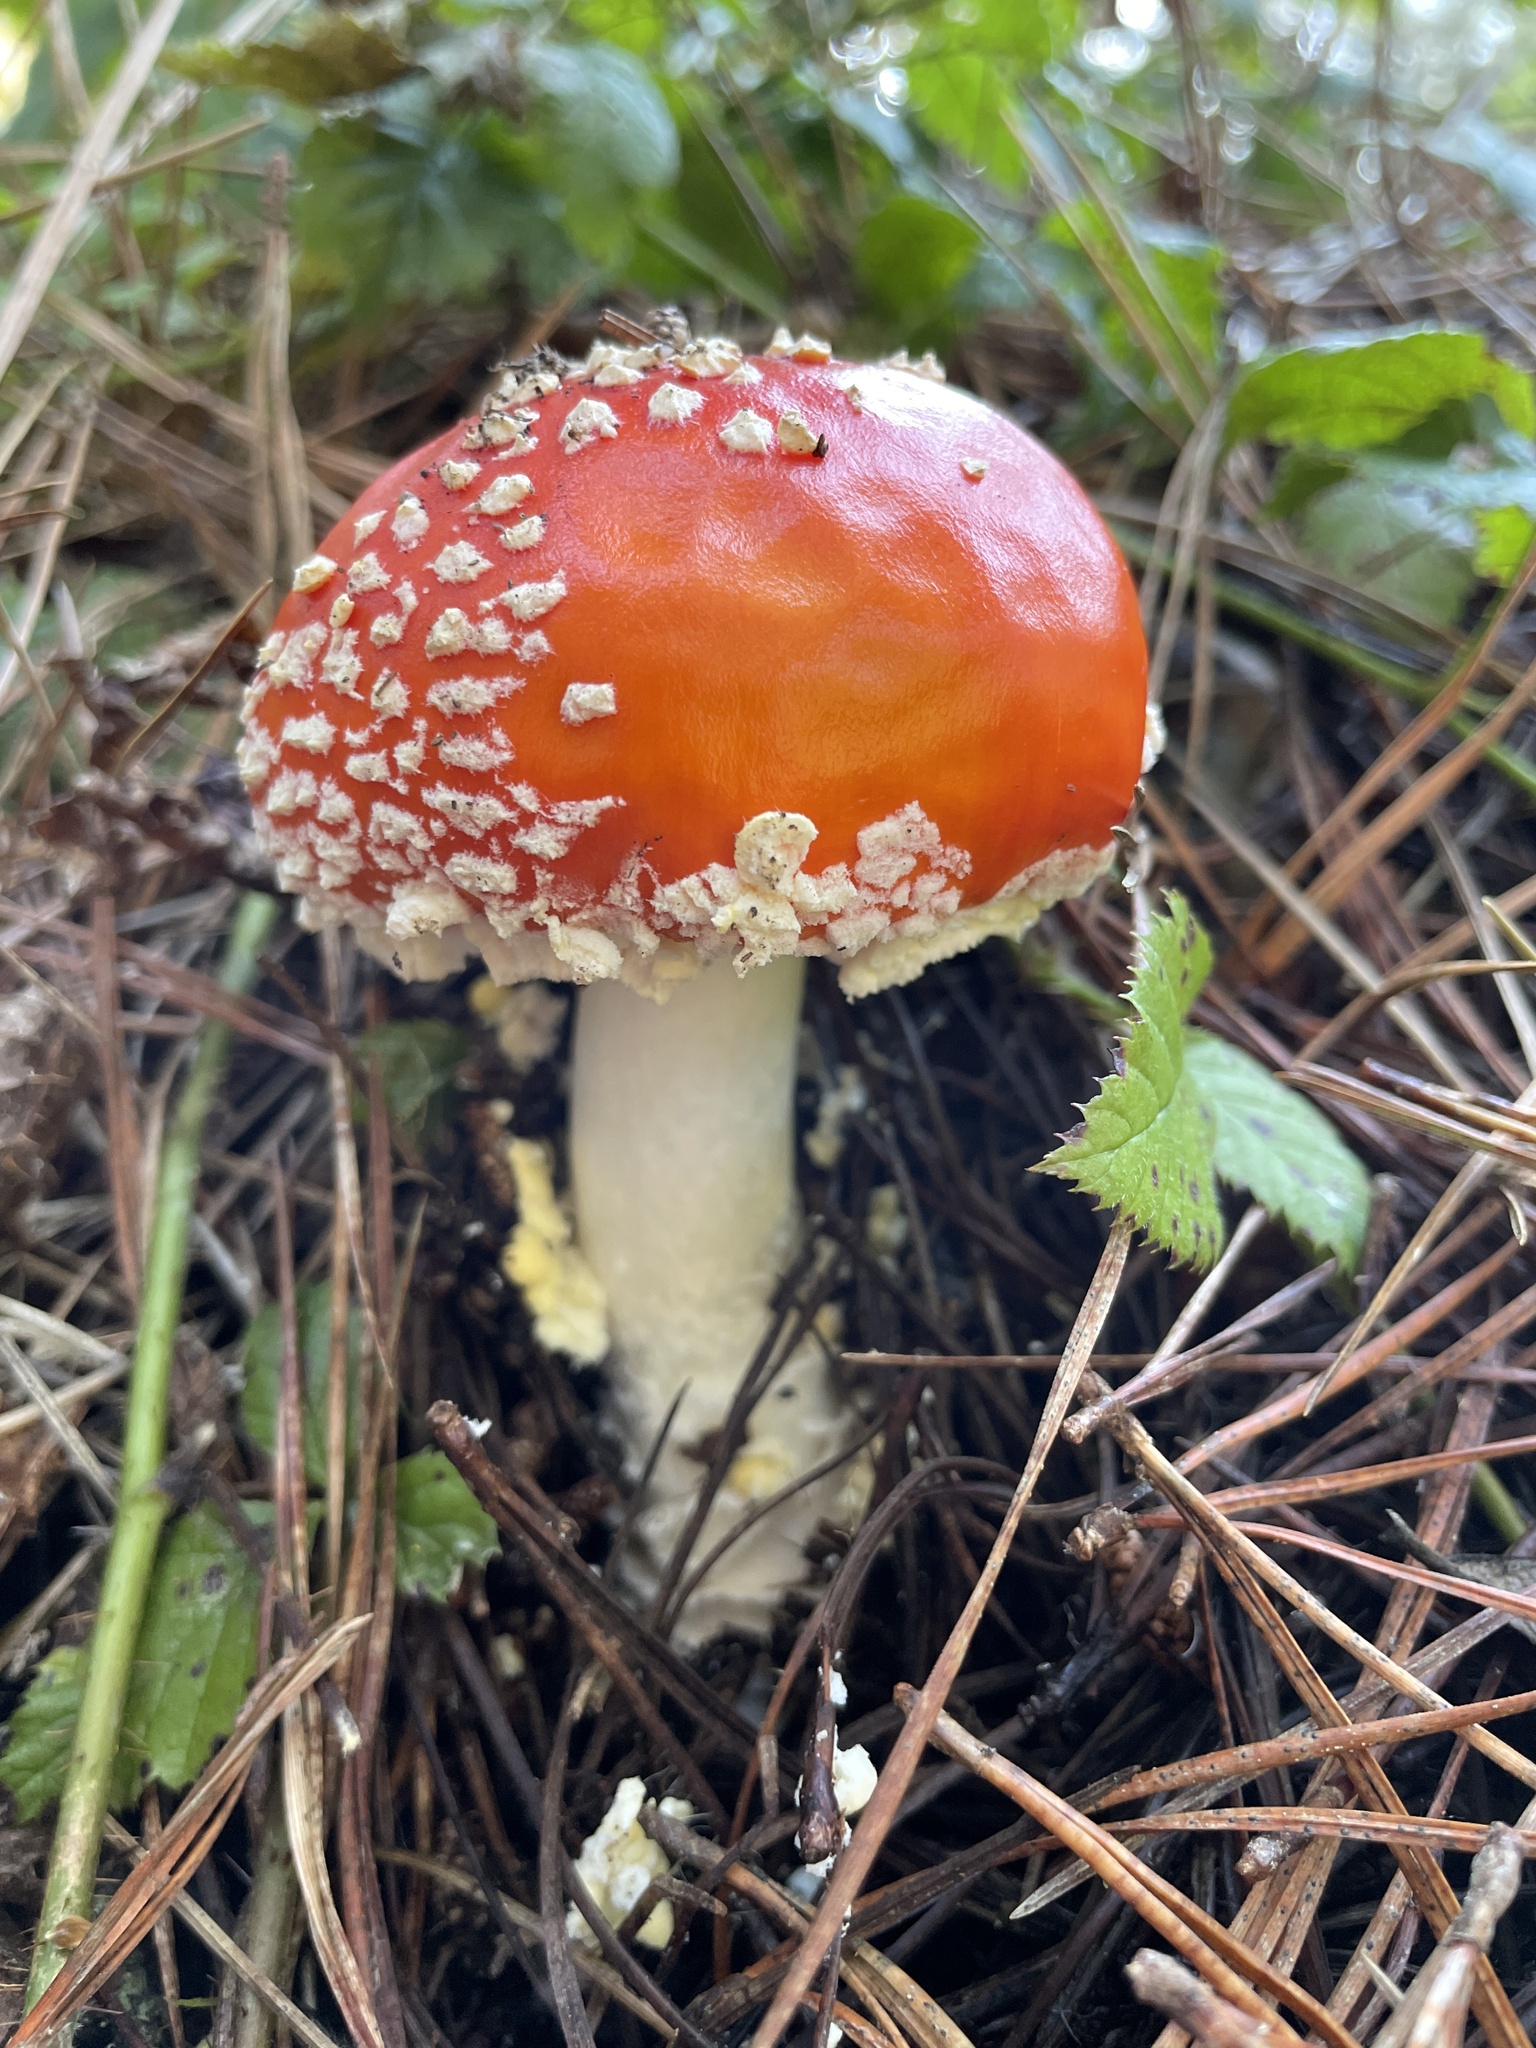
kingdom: Fungi
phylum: Basidiomycota
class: Agaricomycetes
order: Agaricales
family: Amanitaceae
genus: Amanita
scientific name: Amanita muscaria
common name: Fly agaric
